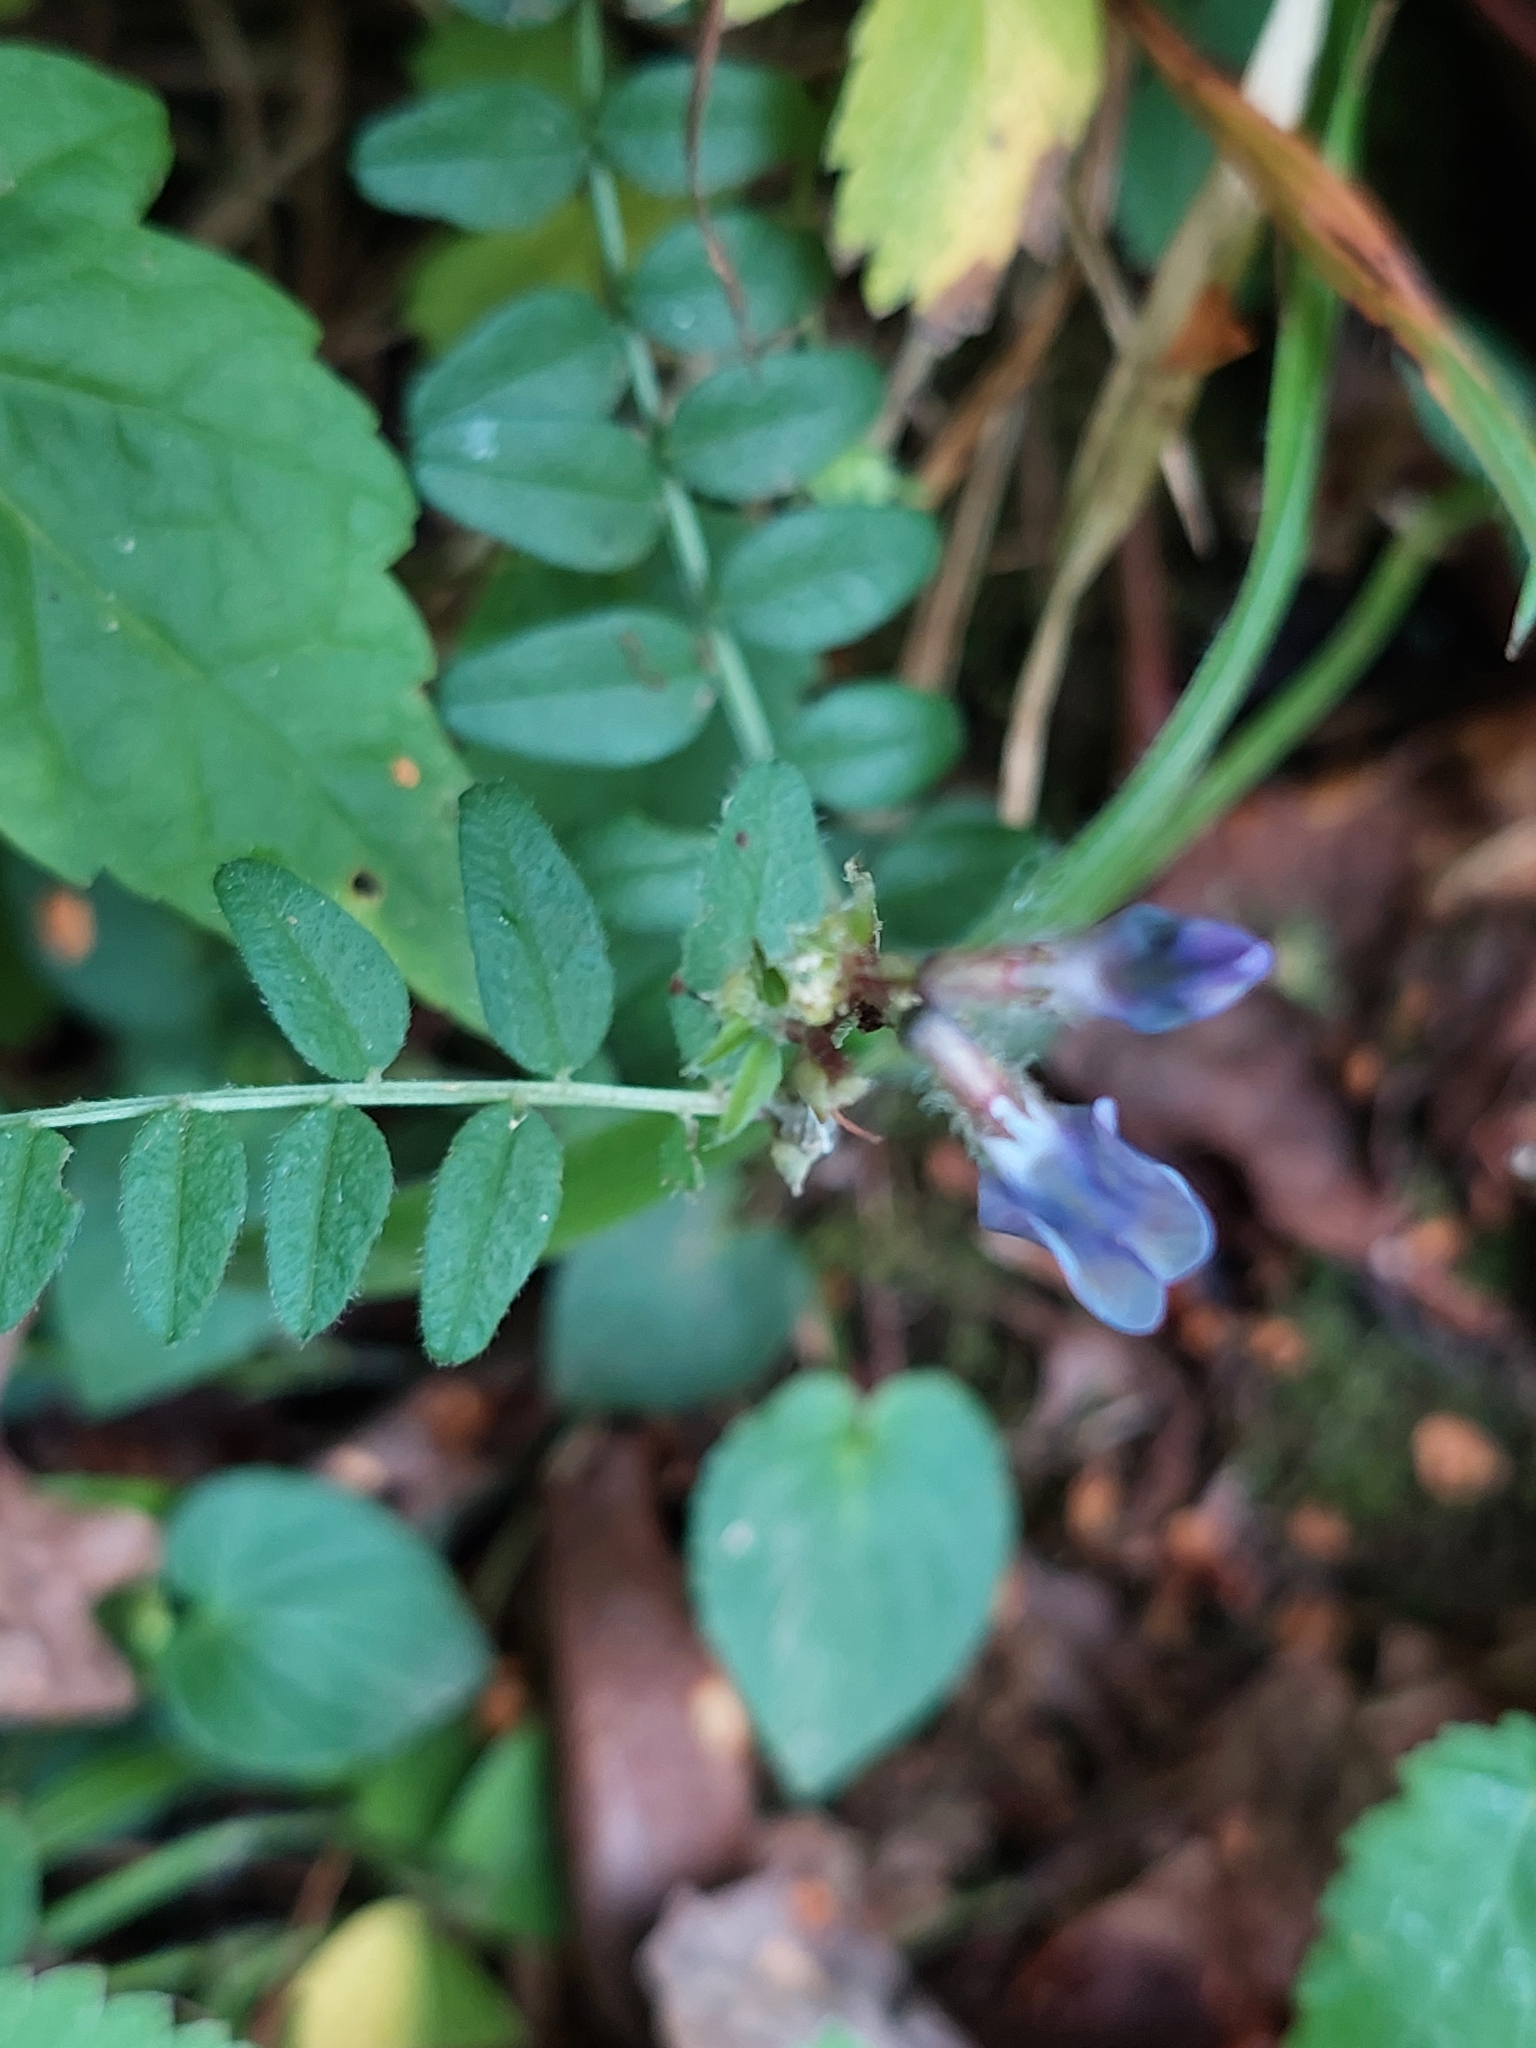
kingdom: Plantae
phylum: Tracheophyta
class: Magnoliopsida
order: Fabales
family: Fabaceae
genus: Vicia
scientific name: Vicia sepium
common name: Bush vetch
